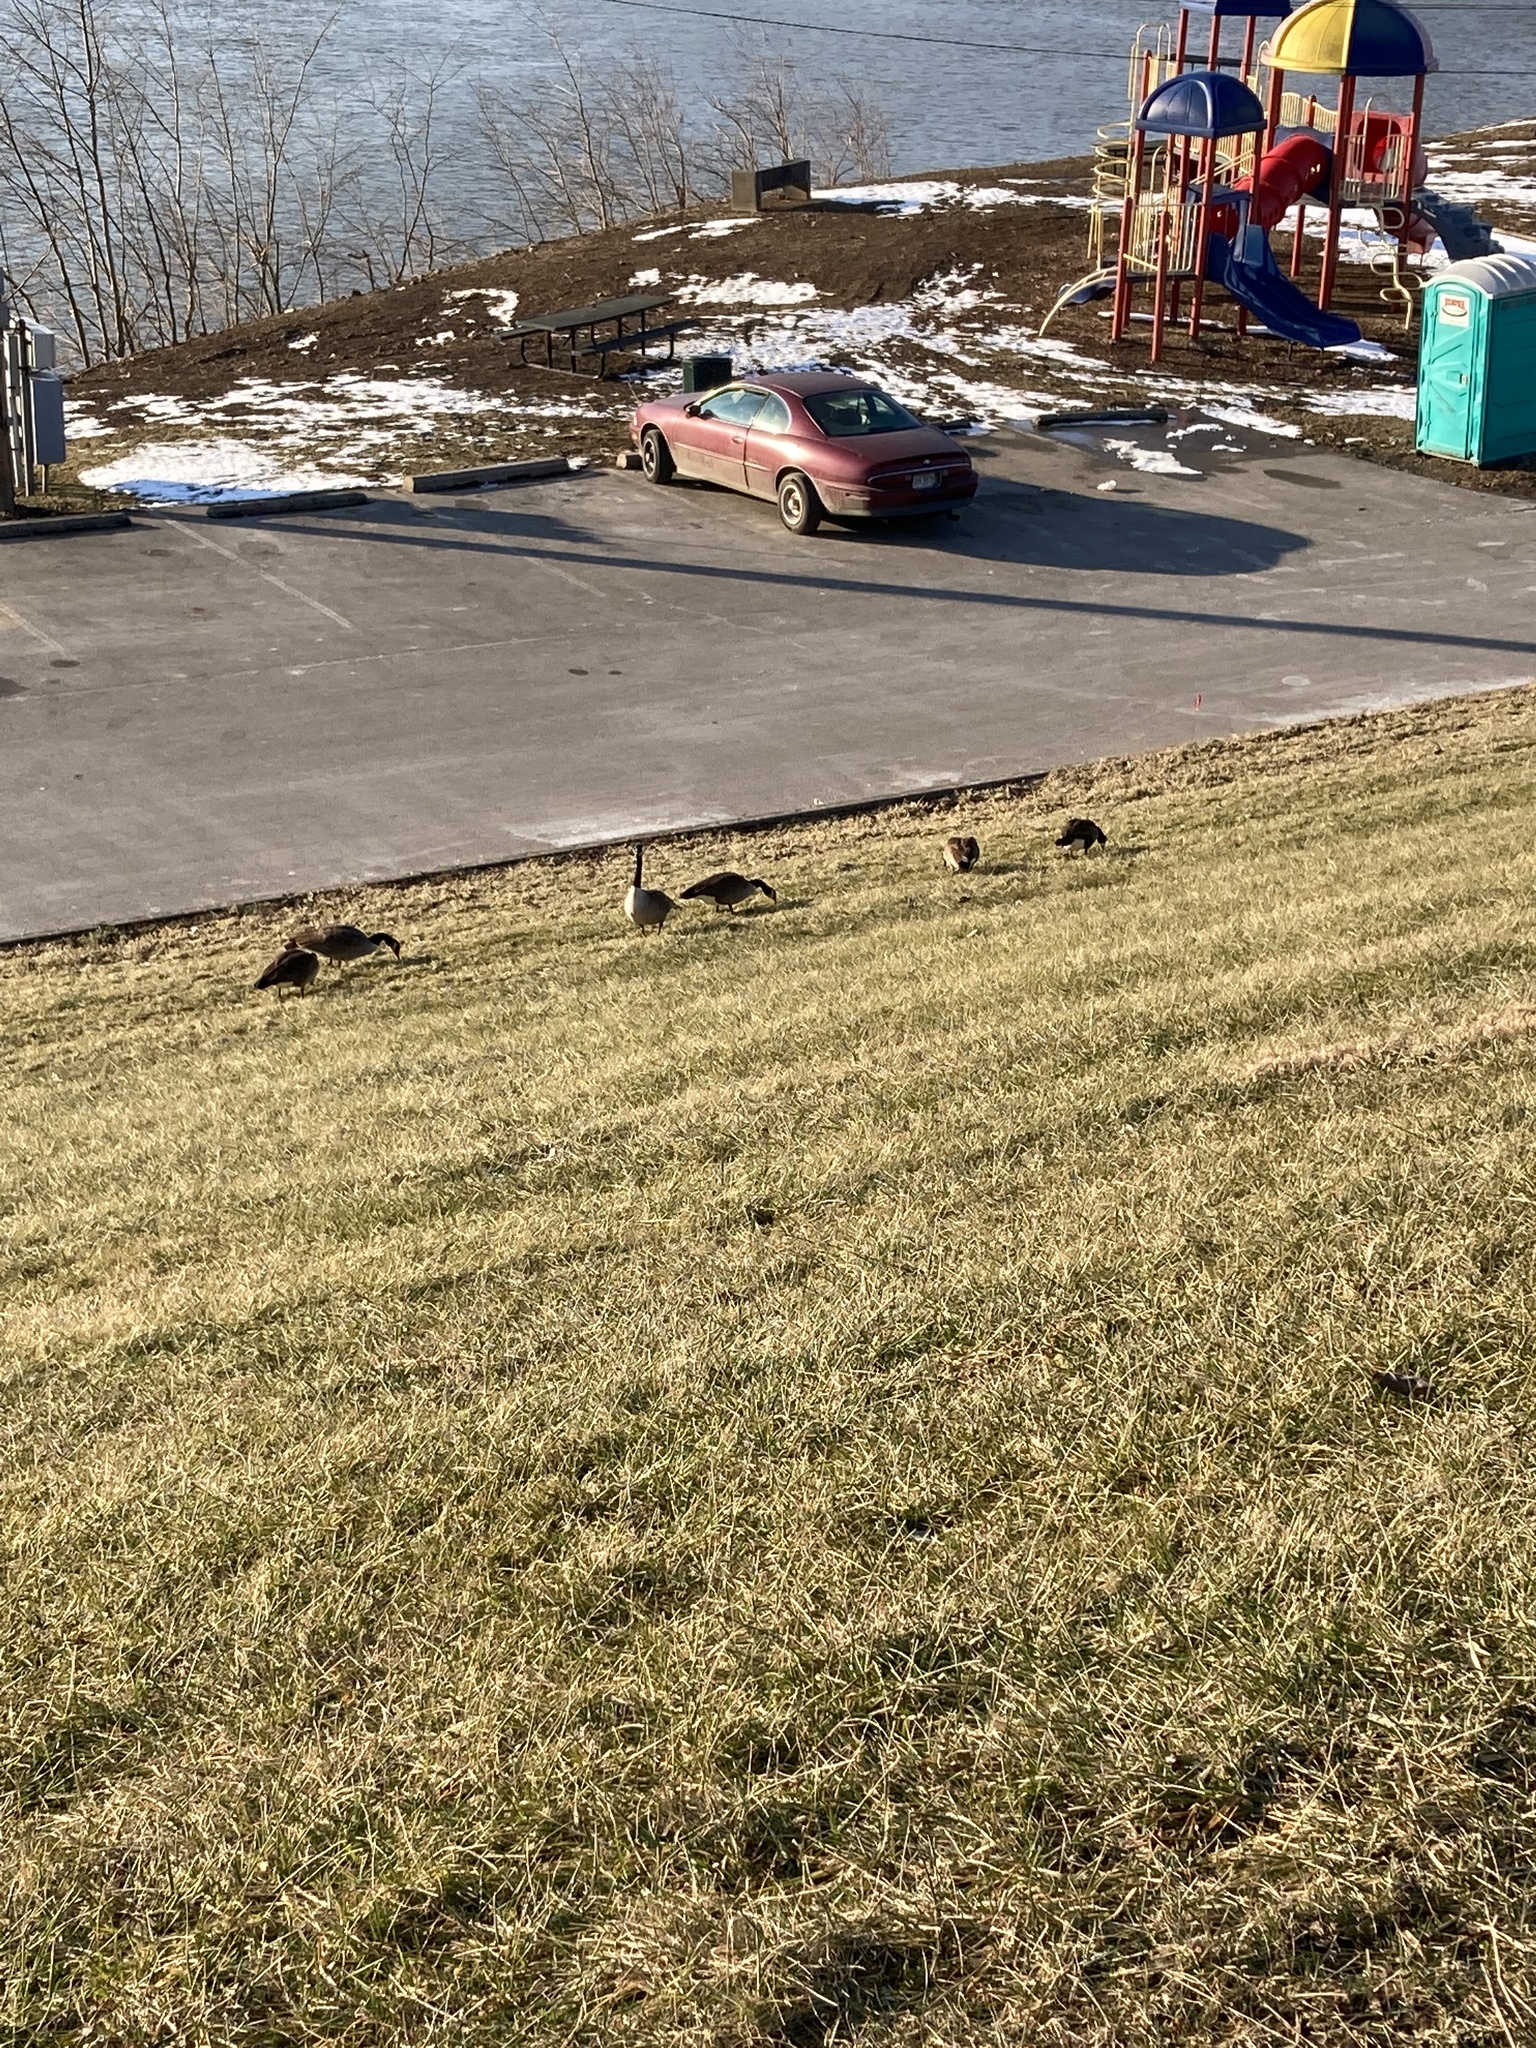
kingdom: Animalia
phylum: Chordata
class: Aves
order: Anseriformes
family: Anatidae
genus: Branta
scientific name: Branta canadensis
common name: Canada goose
